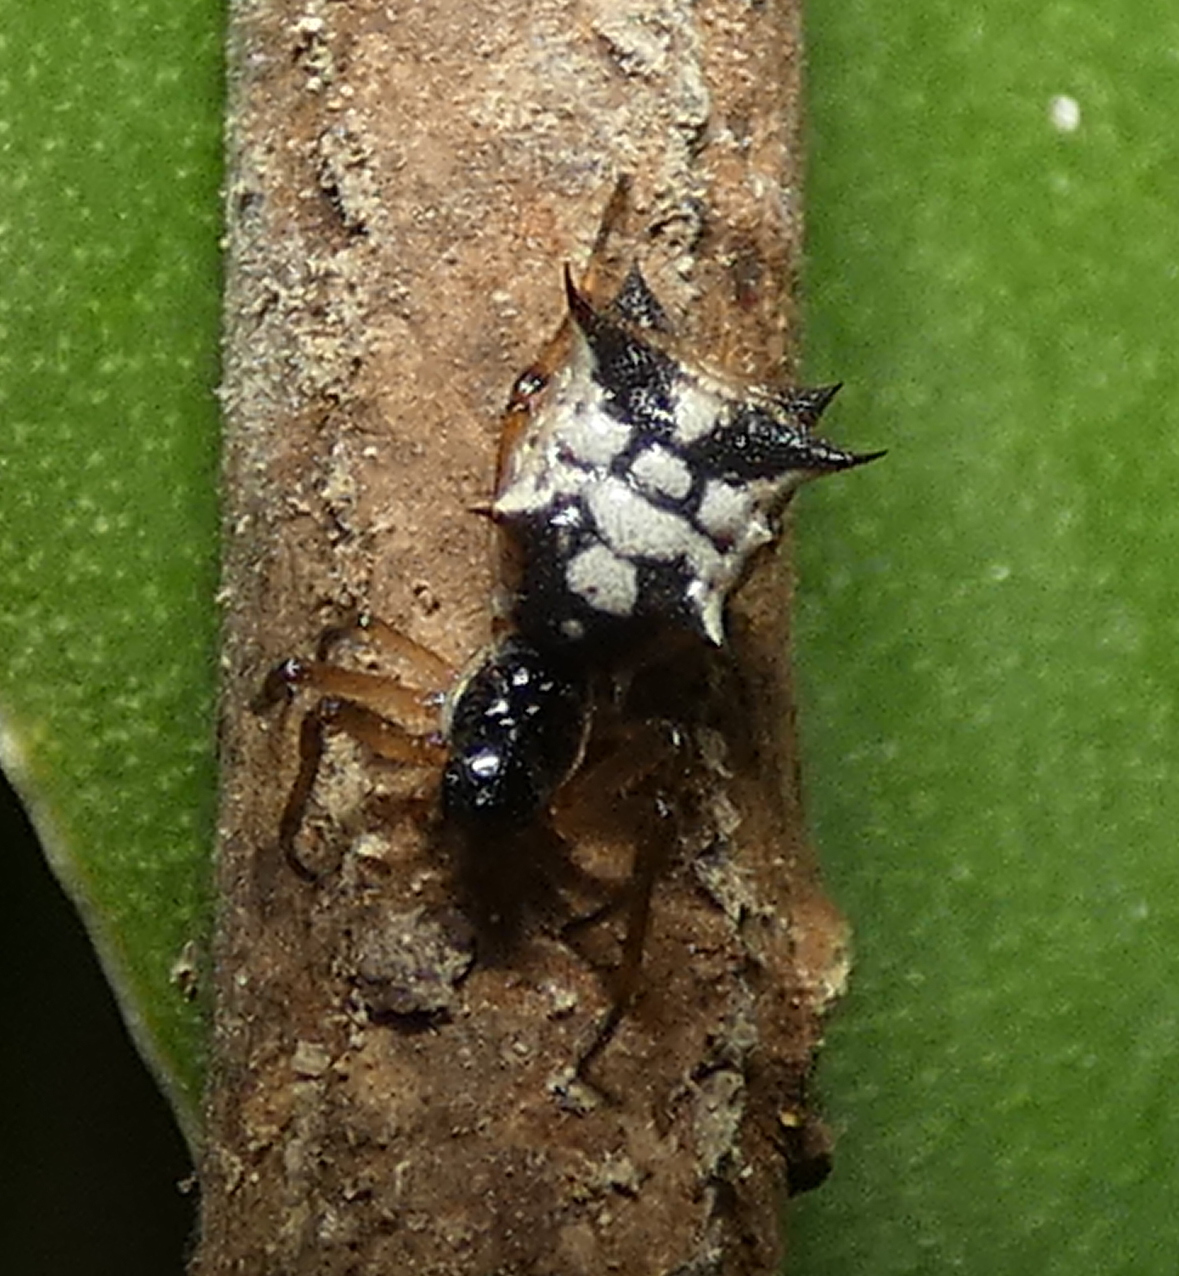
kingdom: Animalia
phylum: Arthropoda
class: Arachnida
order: Araneae
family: Araneidae
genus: Micrathena
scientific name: Micrathena picta
